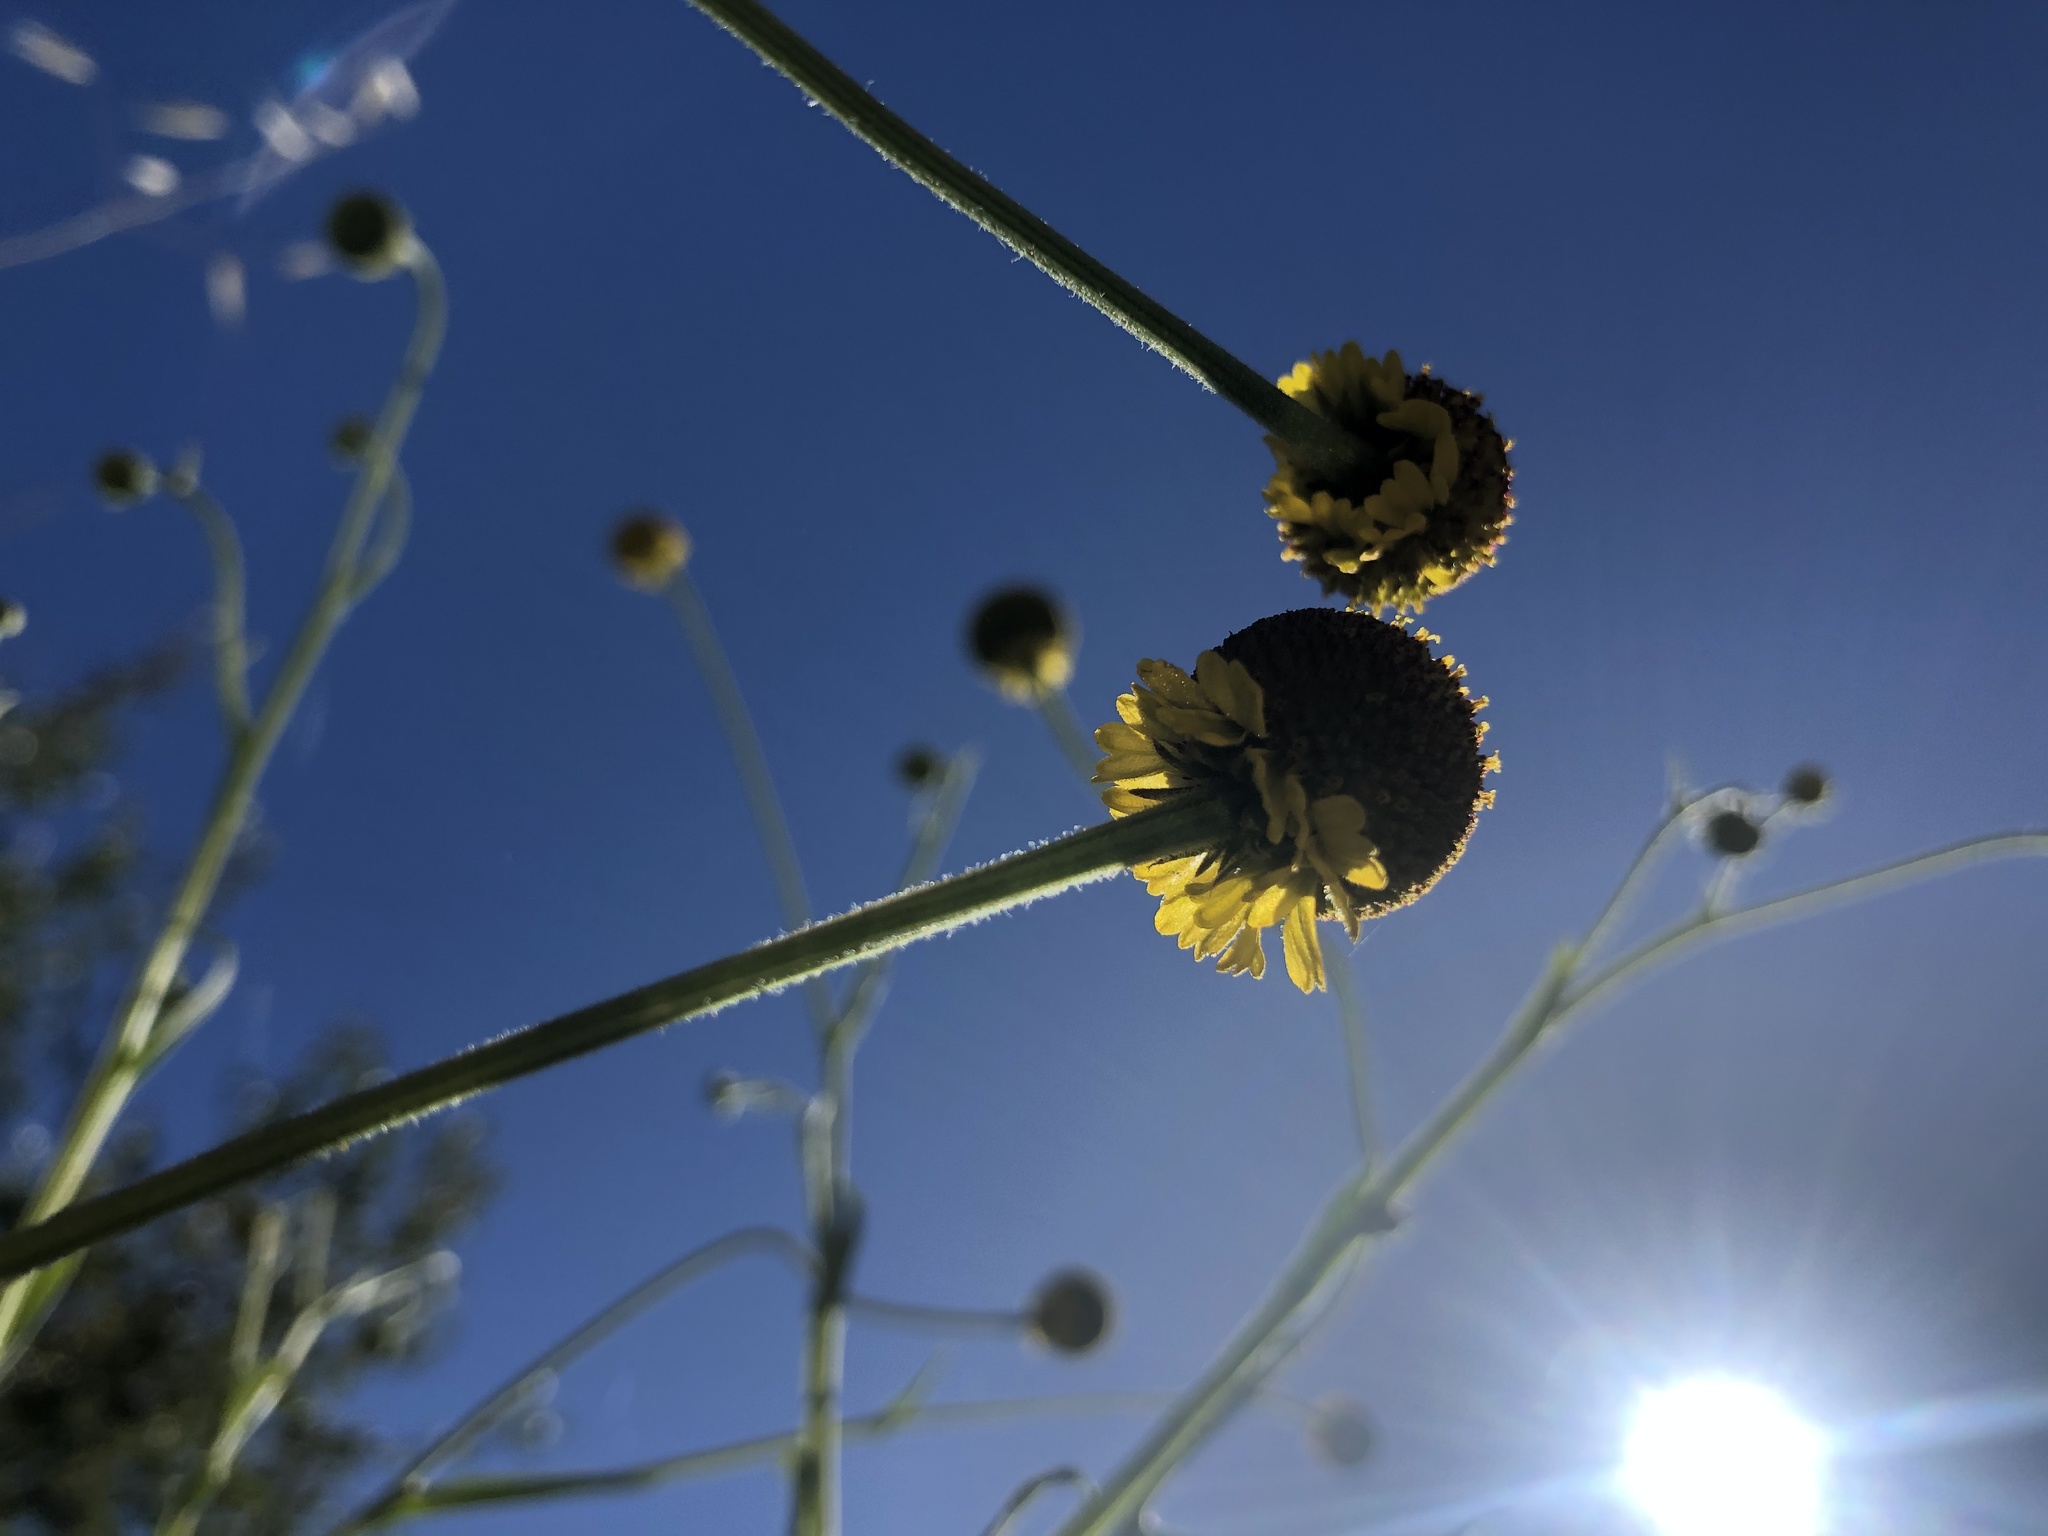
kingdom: Plantae
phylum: Tracheophyta
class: Magnoliopsida
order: Asterales
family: Asteraceae
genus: Helenium
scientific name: Helenium puberulum
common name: Sneezewort
